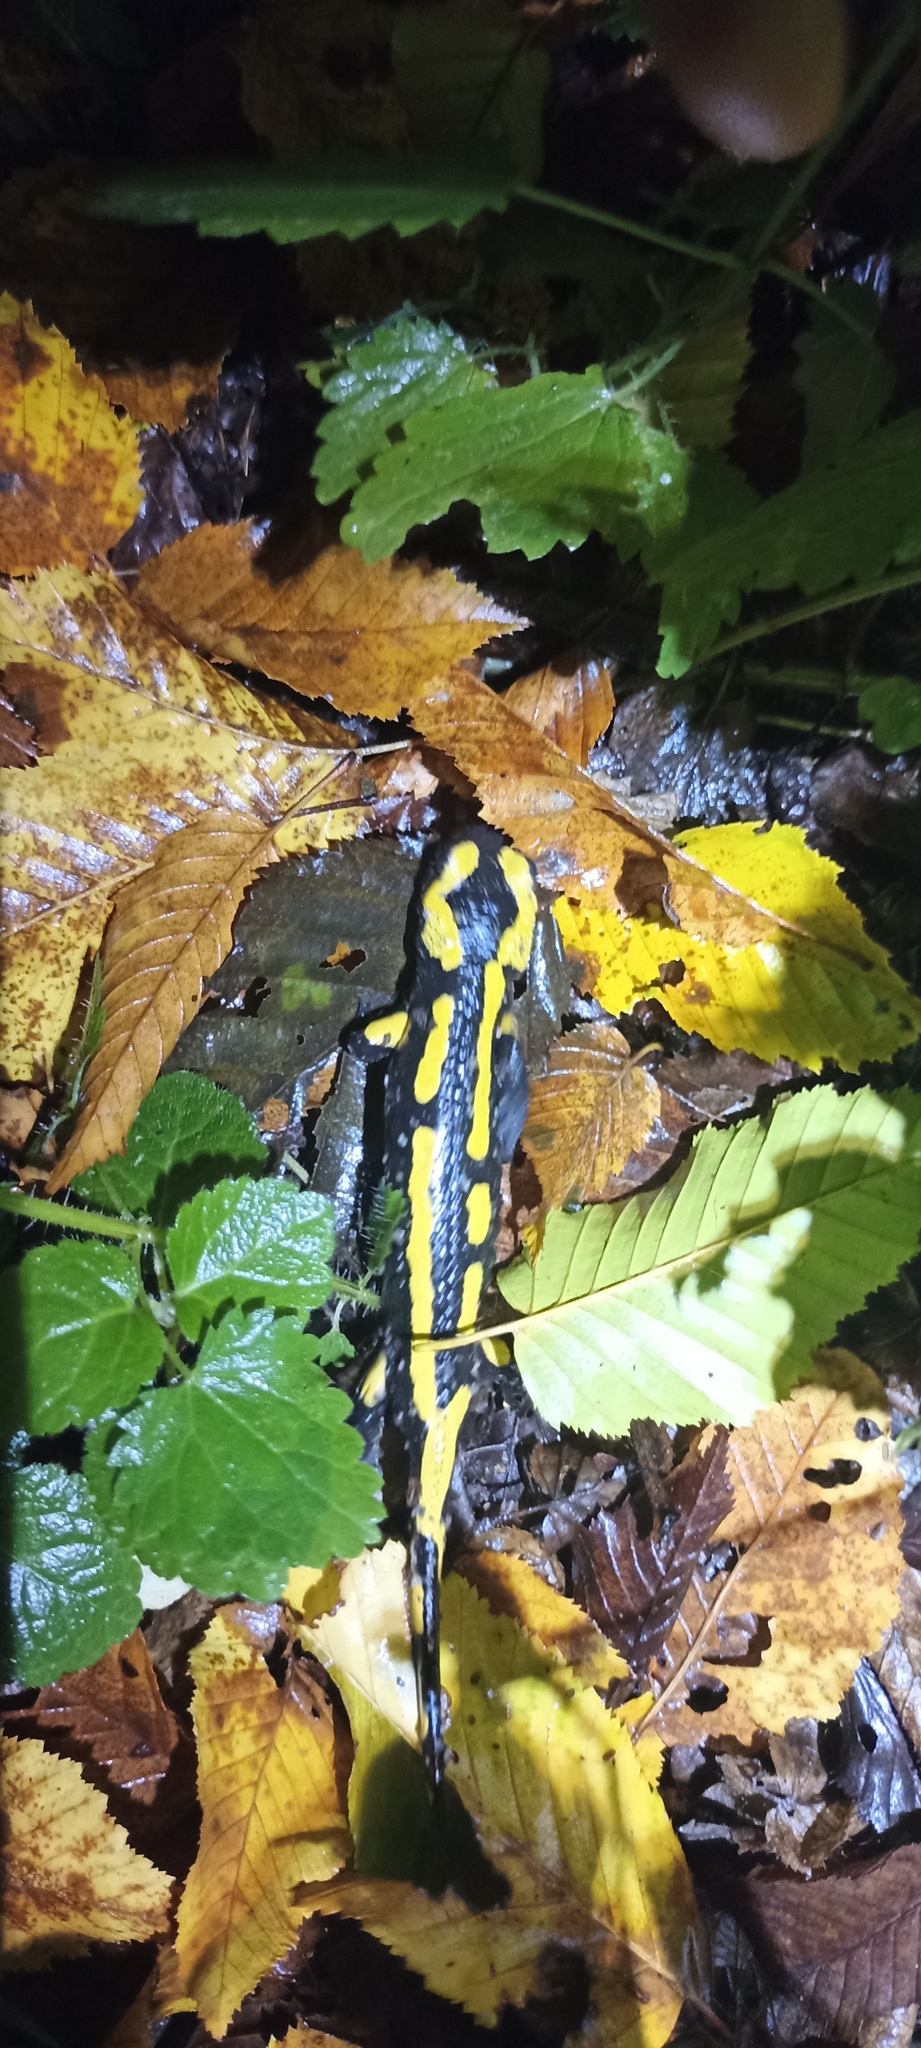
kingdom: Animalia
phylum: Chordata
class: Amphibia
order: Caudata
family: Salamandridae
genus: Salamandra
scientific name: Salamandra salamandra
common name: Fire salamander
